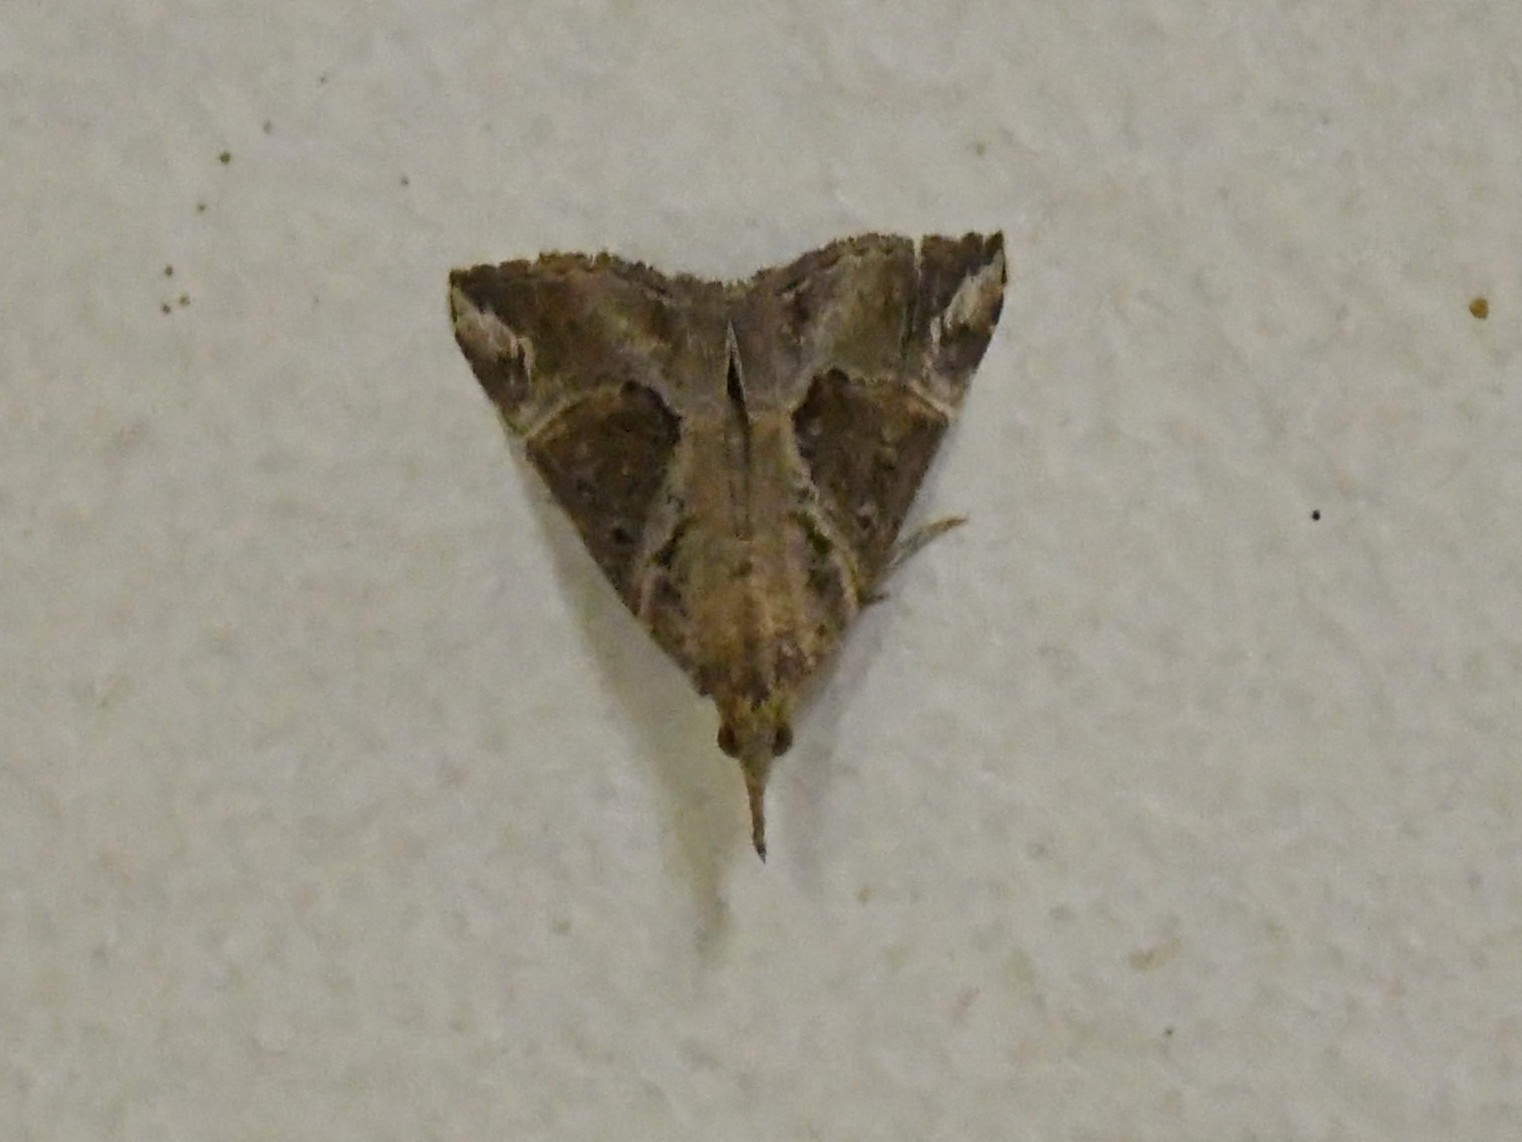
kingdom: Animalia
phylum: Arthropoda
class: Insecta
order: Lepidoptera
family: Erebidae
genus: Hypena
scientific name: Hypena commixtalis
